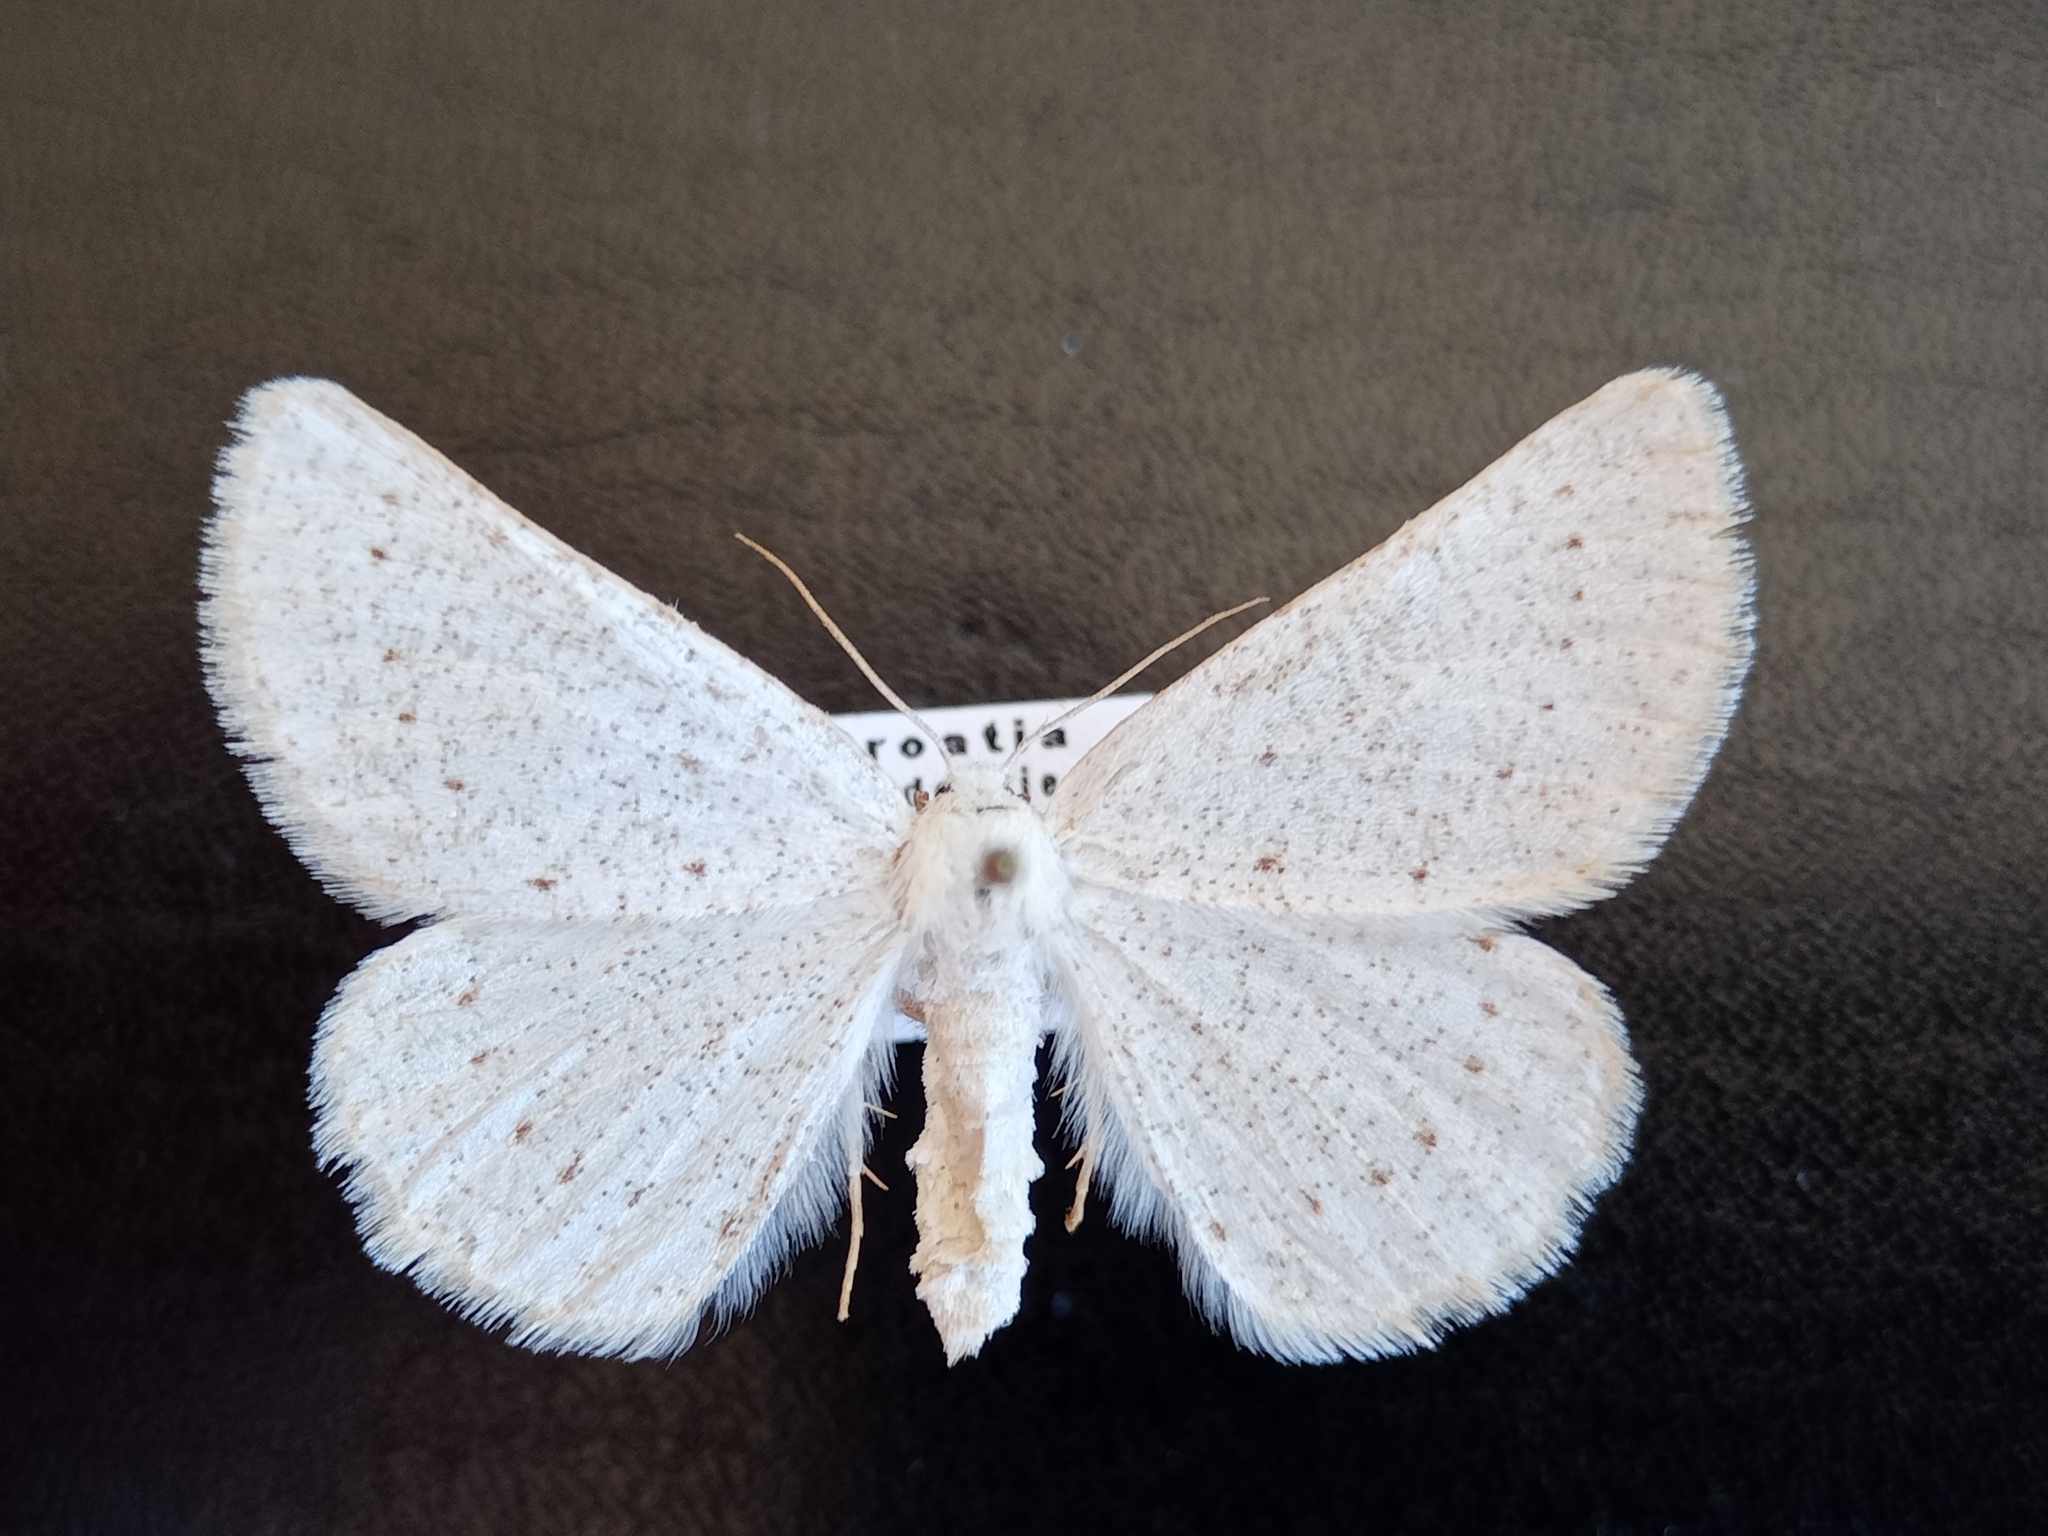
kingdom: Animalia
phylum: Arthropoda
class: Insecta
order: Lepidoptera
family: Geometridae
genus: Dyscia
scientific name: Dyscia raunaria
